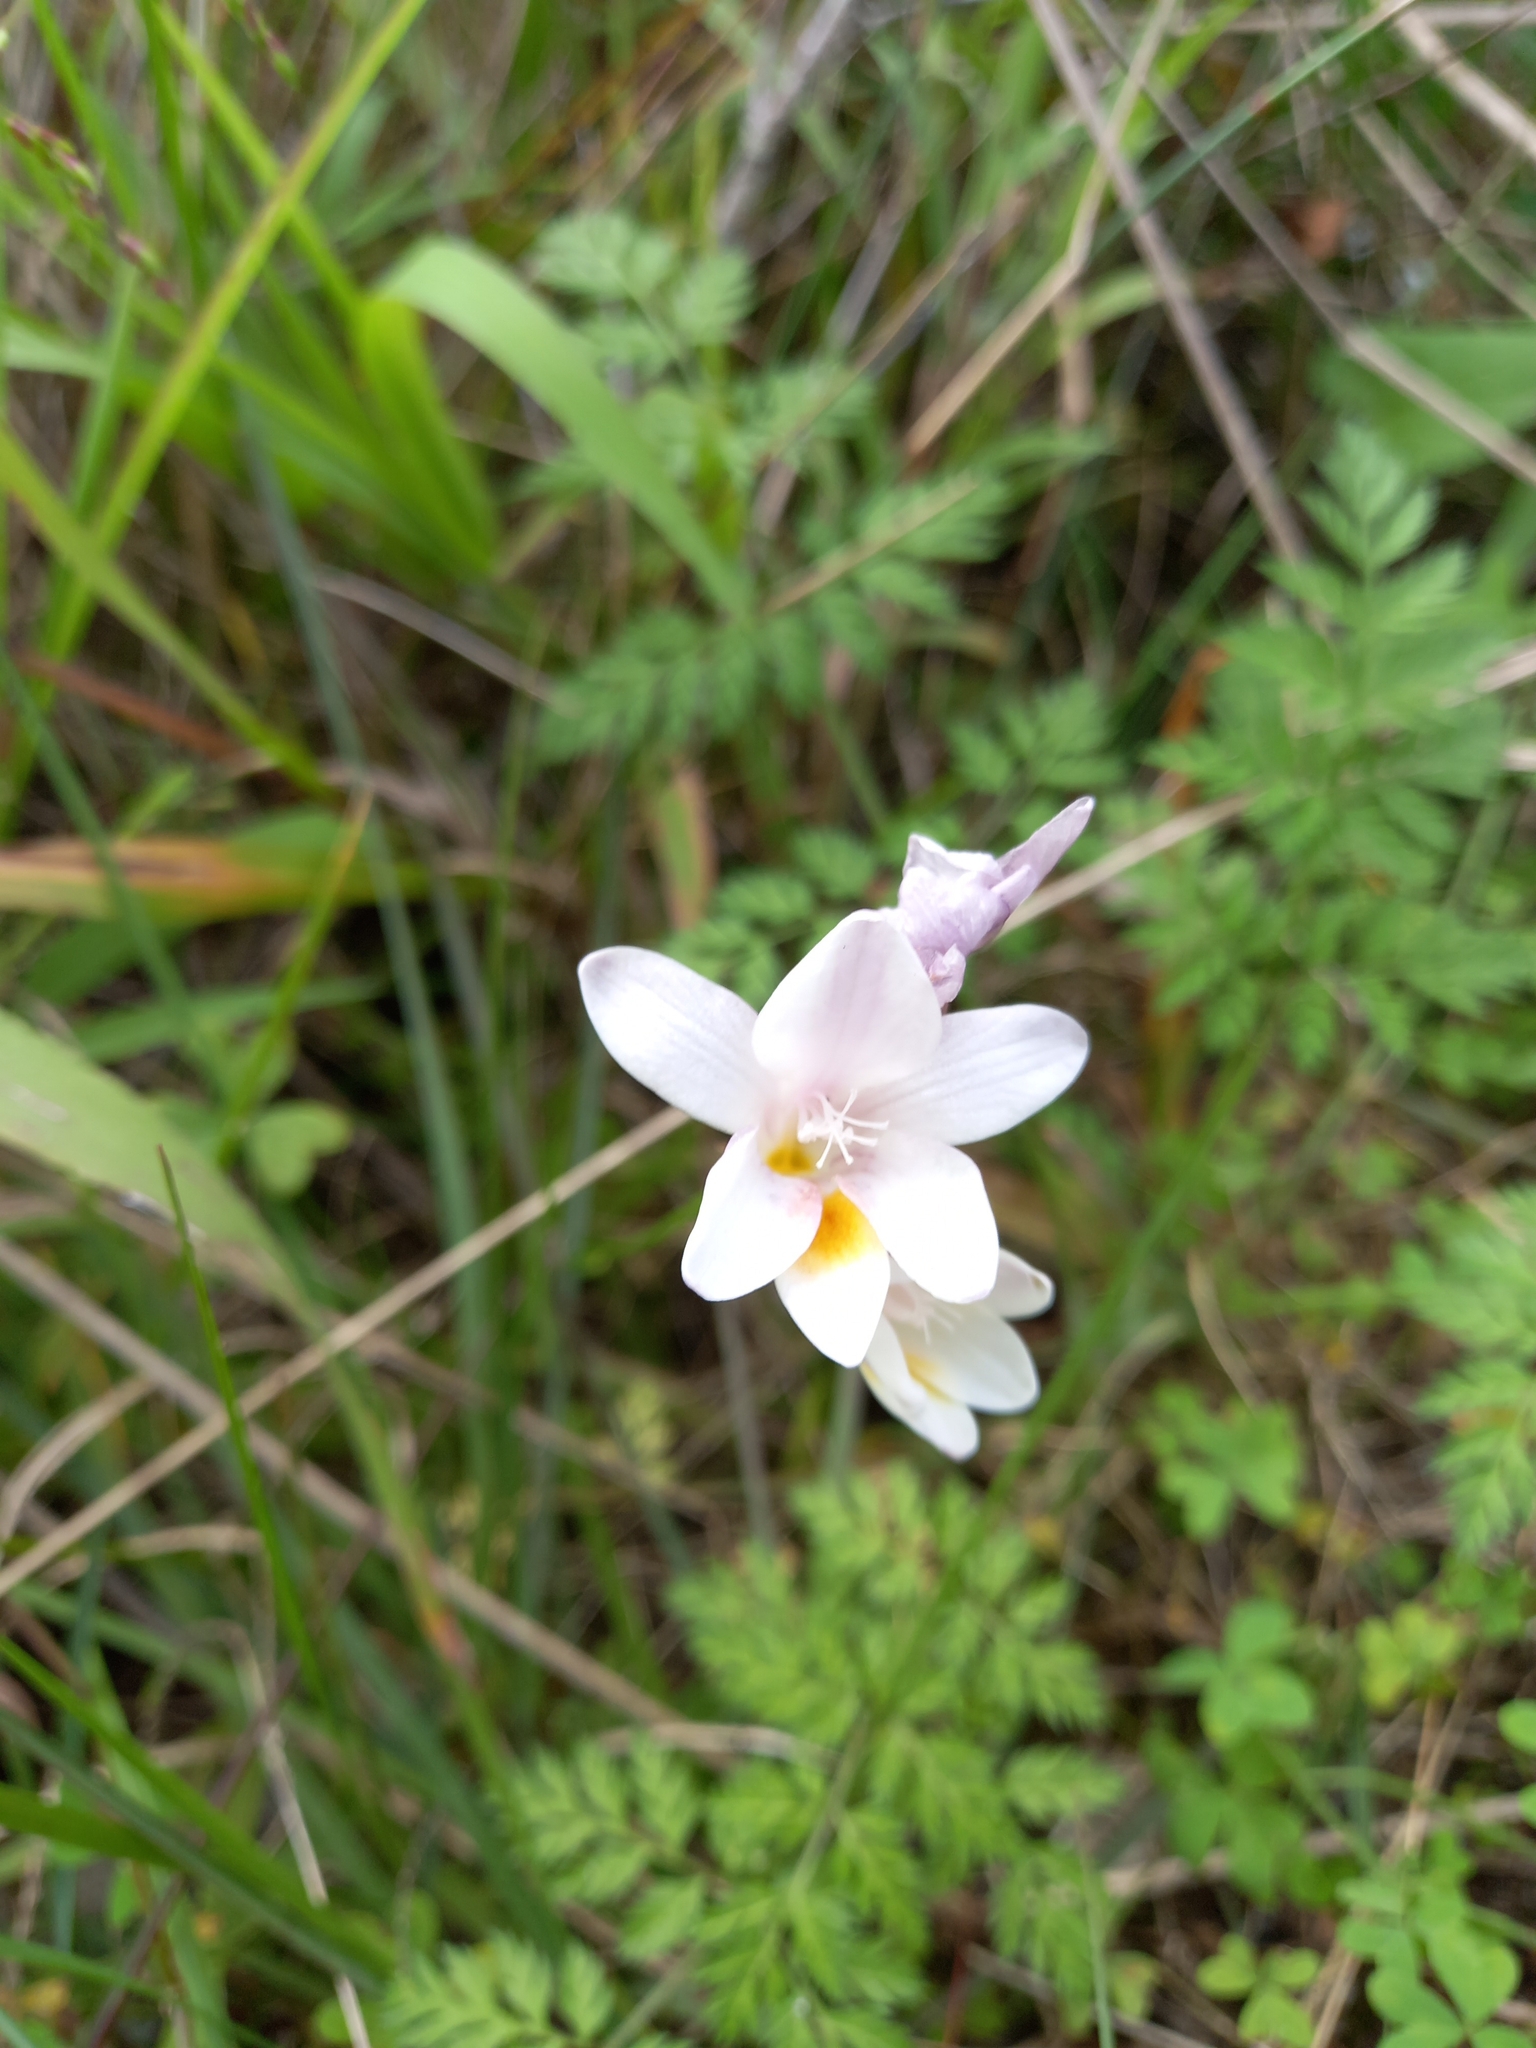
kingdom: Plantae
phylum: Tracheophyta
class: Liliopsida
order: Asparagales
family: Iridaceae
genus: Freesia
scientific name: Freesia leichtlinii
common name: Freesia
